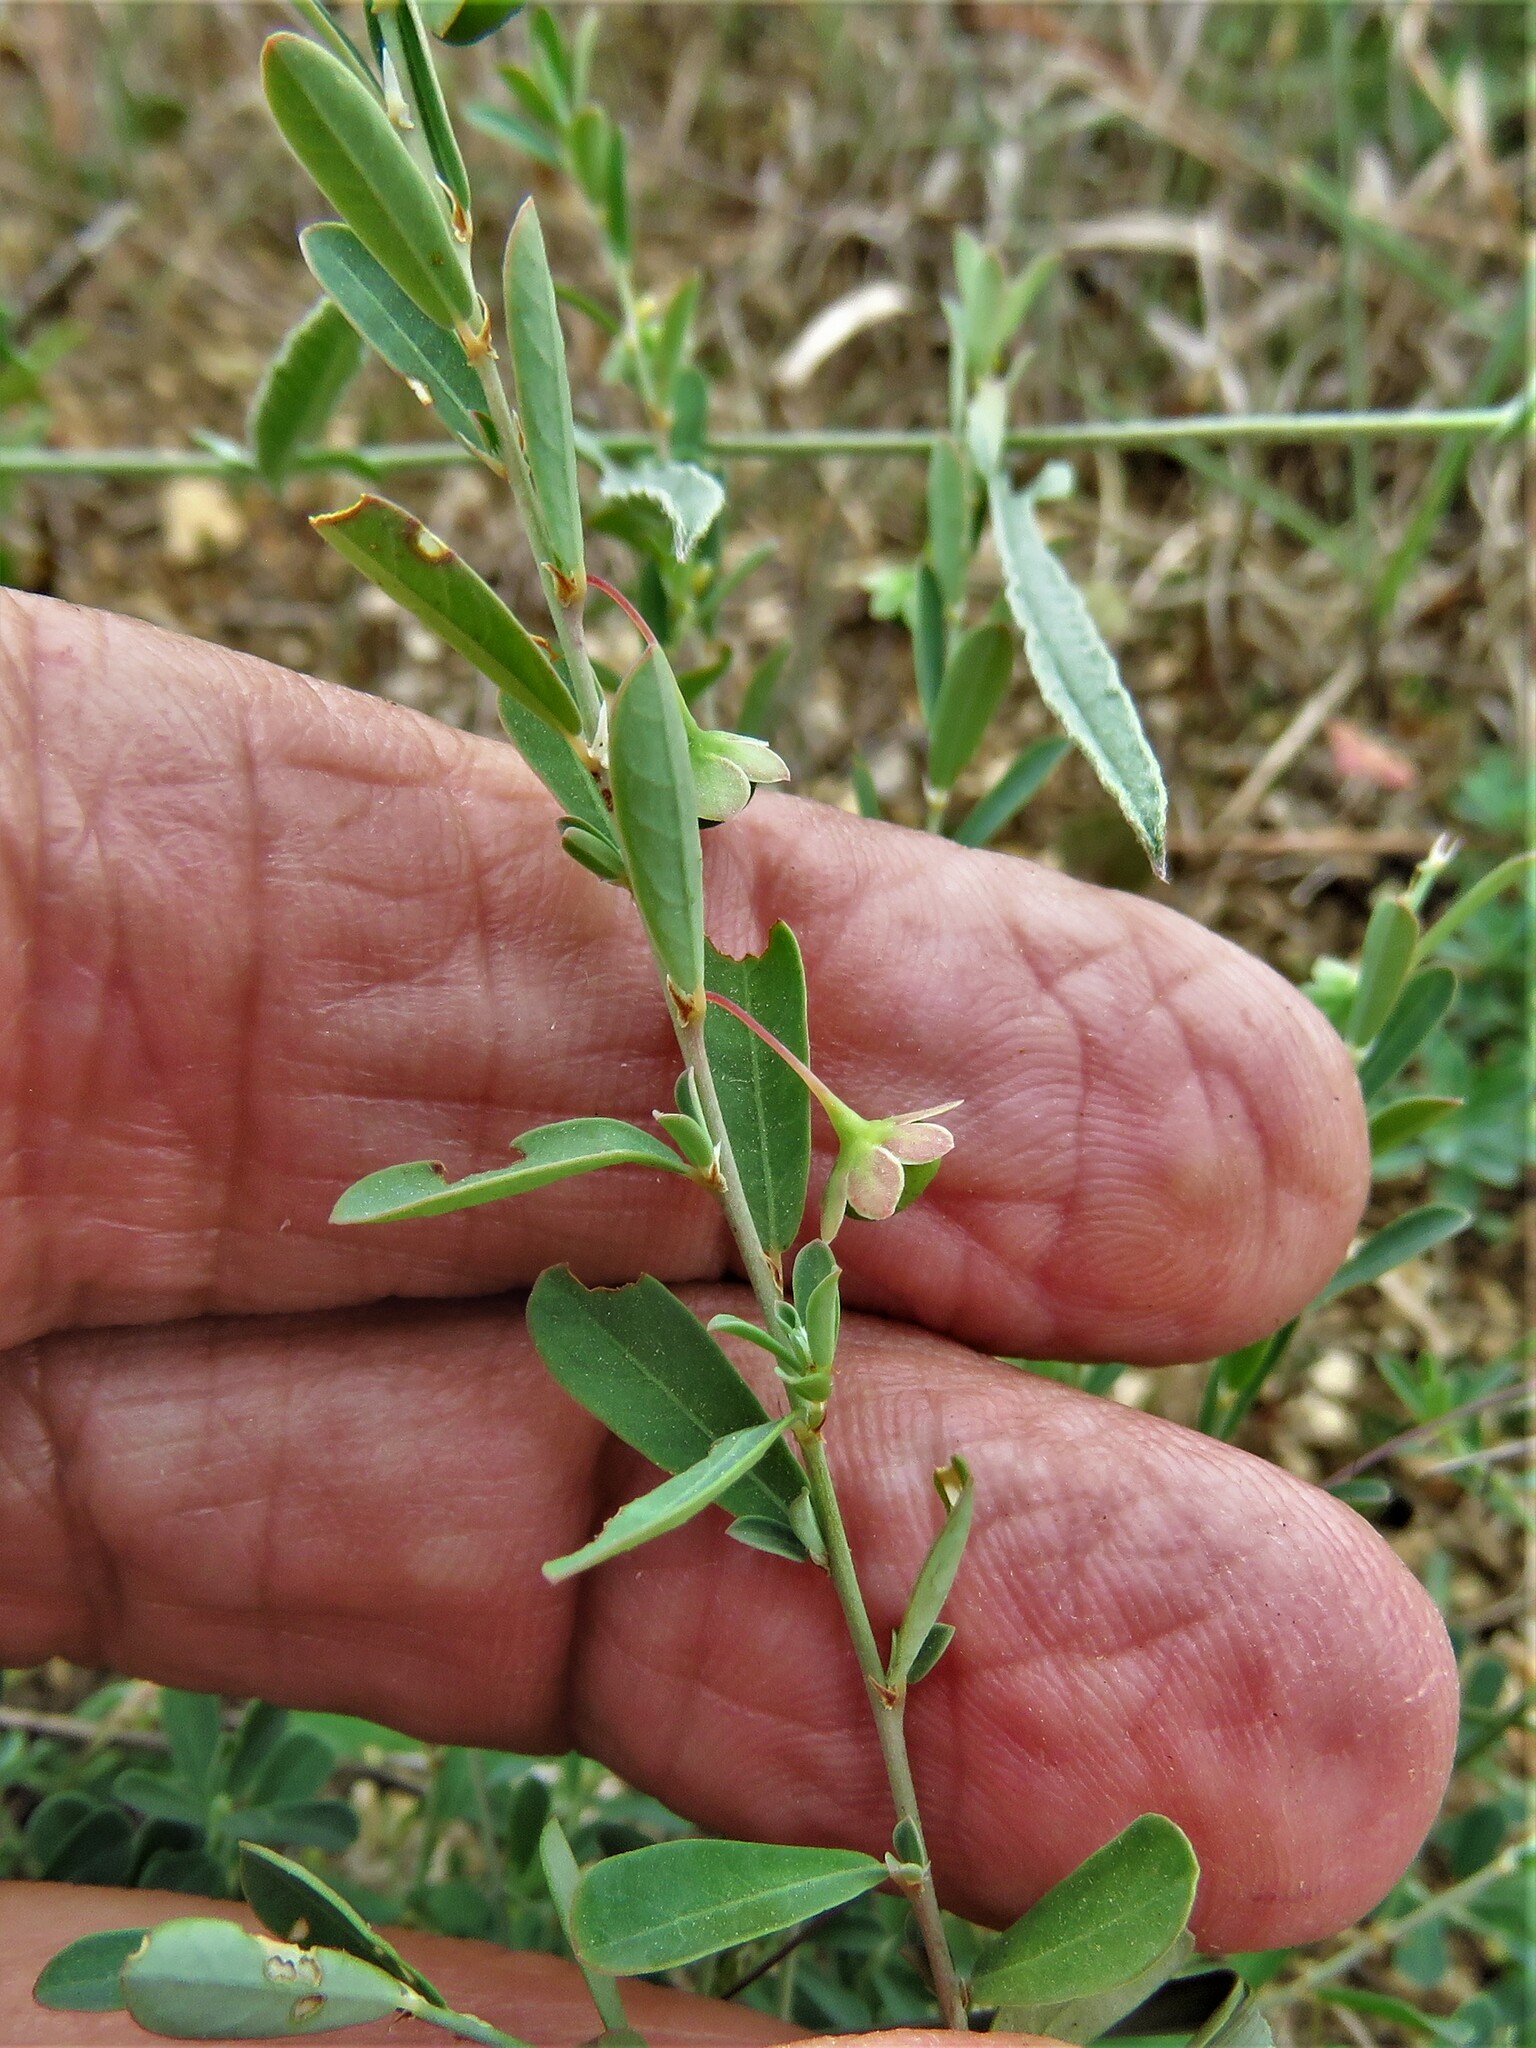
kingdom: Plantae
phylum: Tracheophyta
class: Magnoliopsida
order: Malpighiales
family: Phyllanthaceae
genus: Phyllanthus
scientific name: Phyllanthus polygonoides
